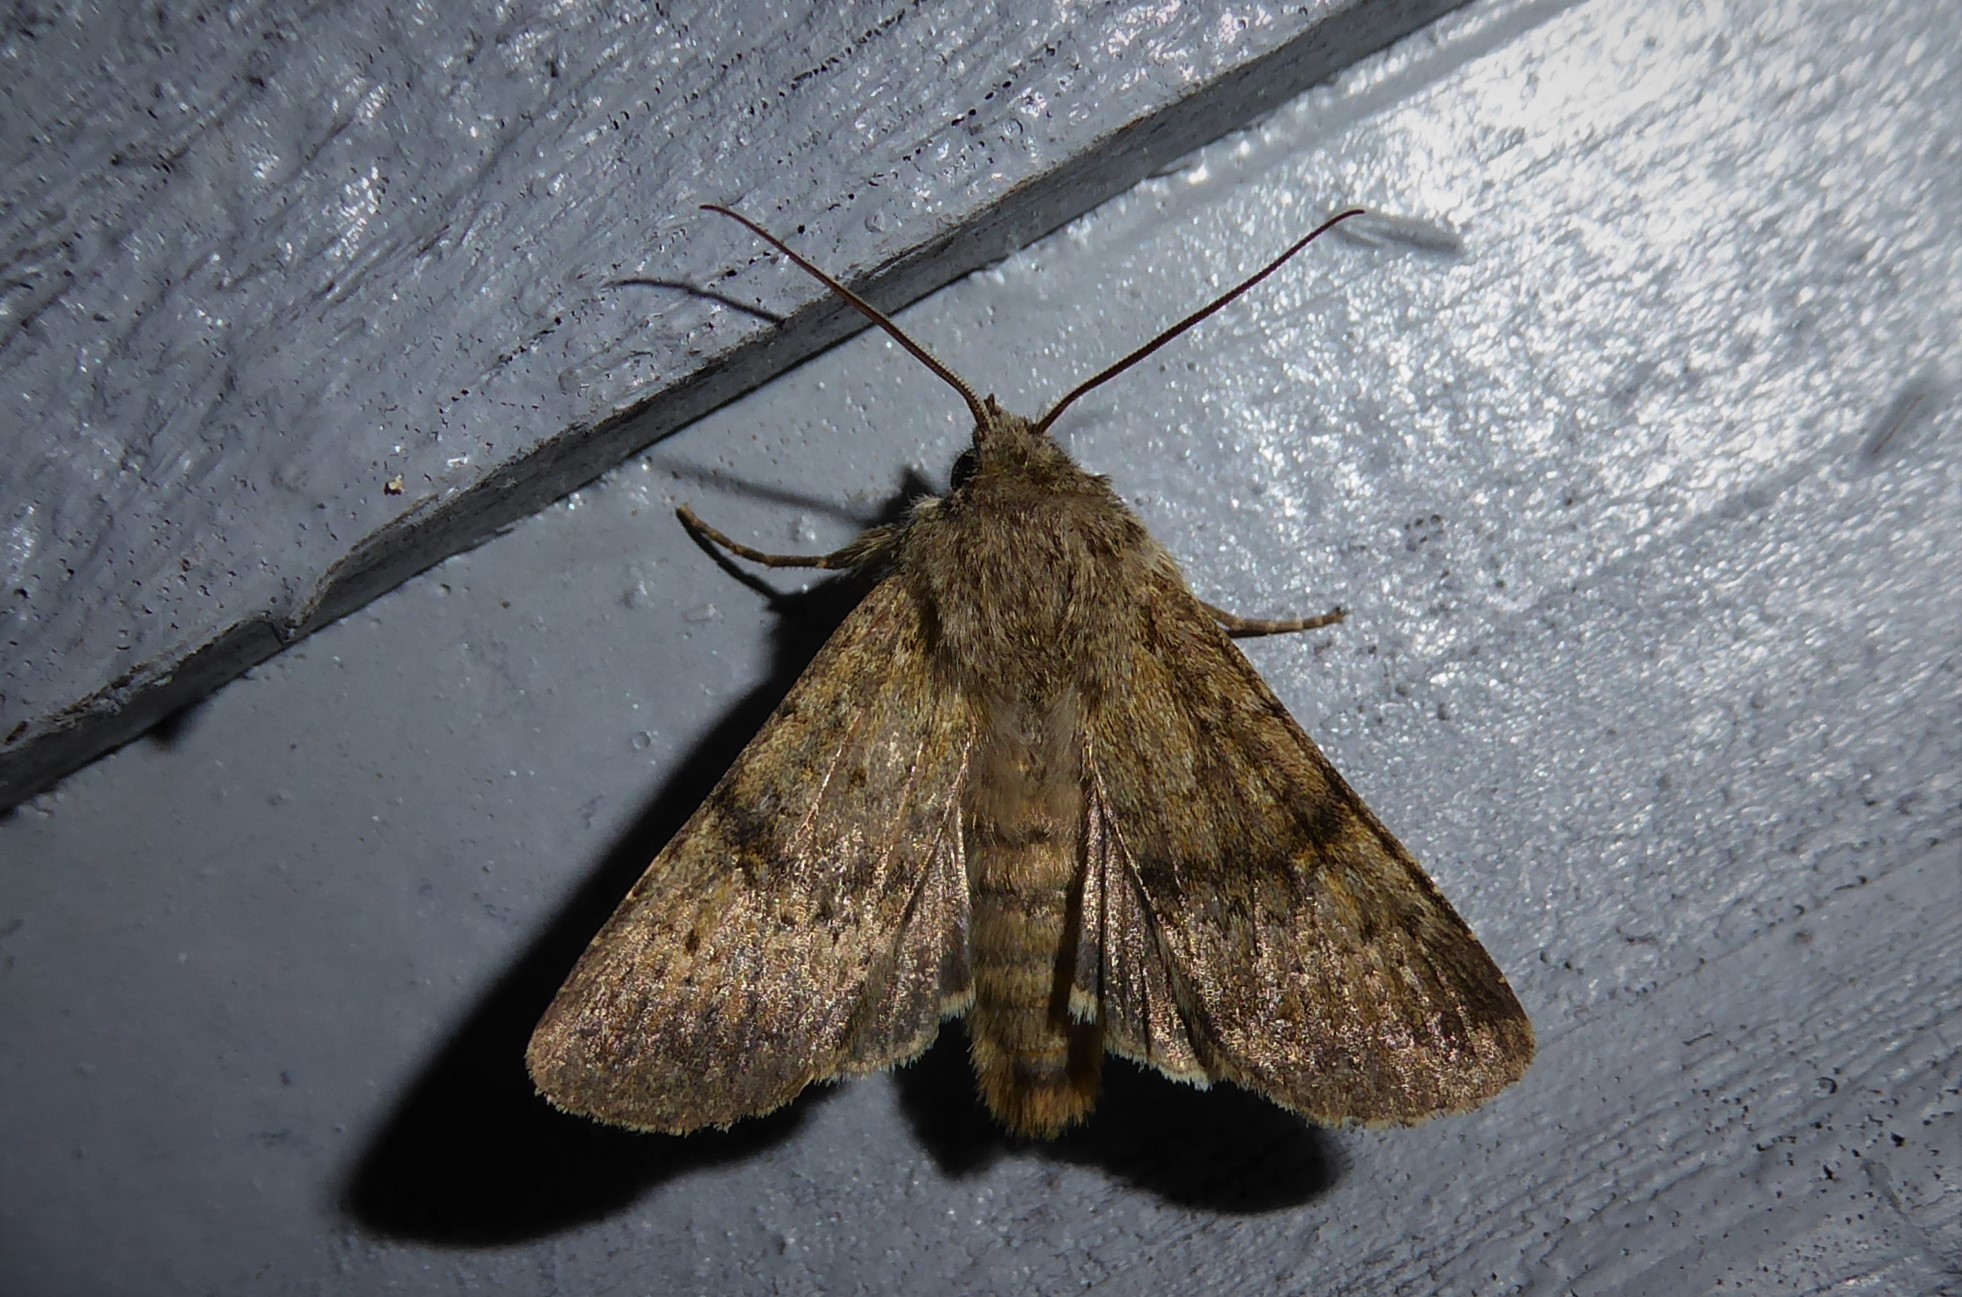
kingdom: Animalia
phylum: Arthropoda
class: Insecta
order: Lepidoptera
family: Noctuidae
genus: Ichneutica
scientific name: Ichneutica moderata
